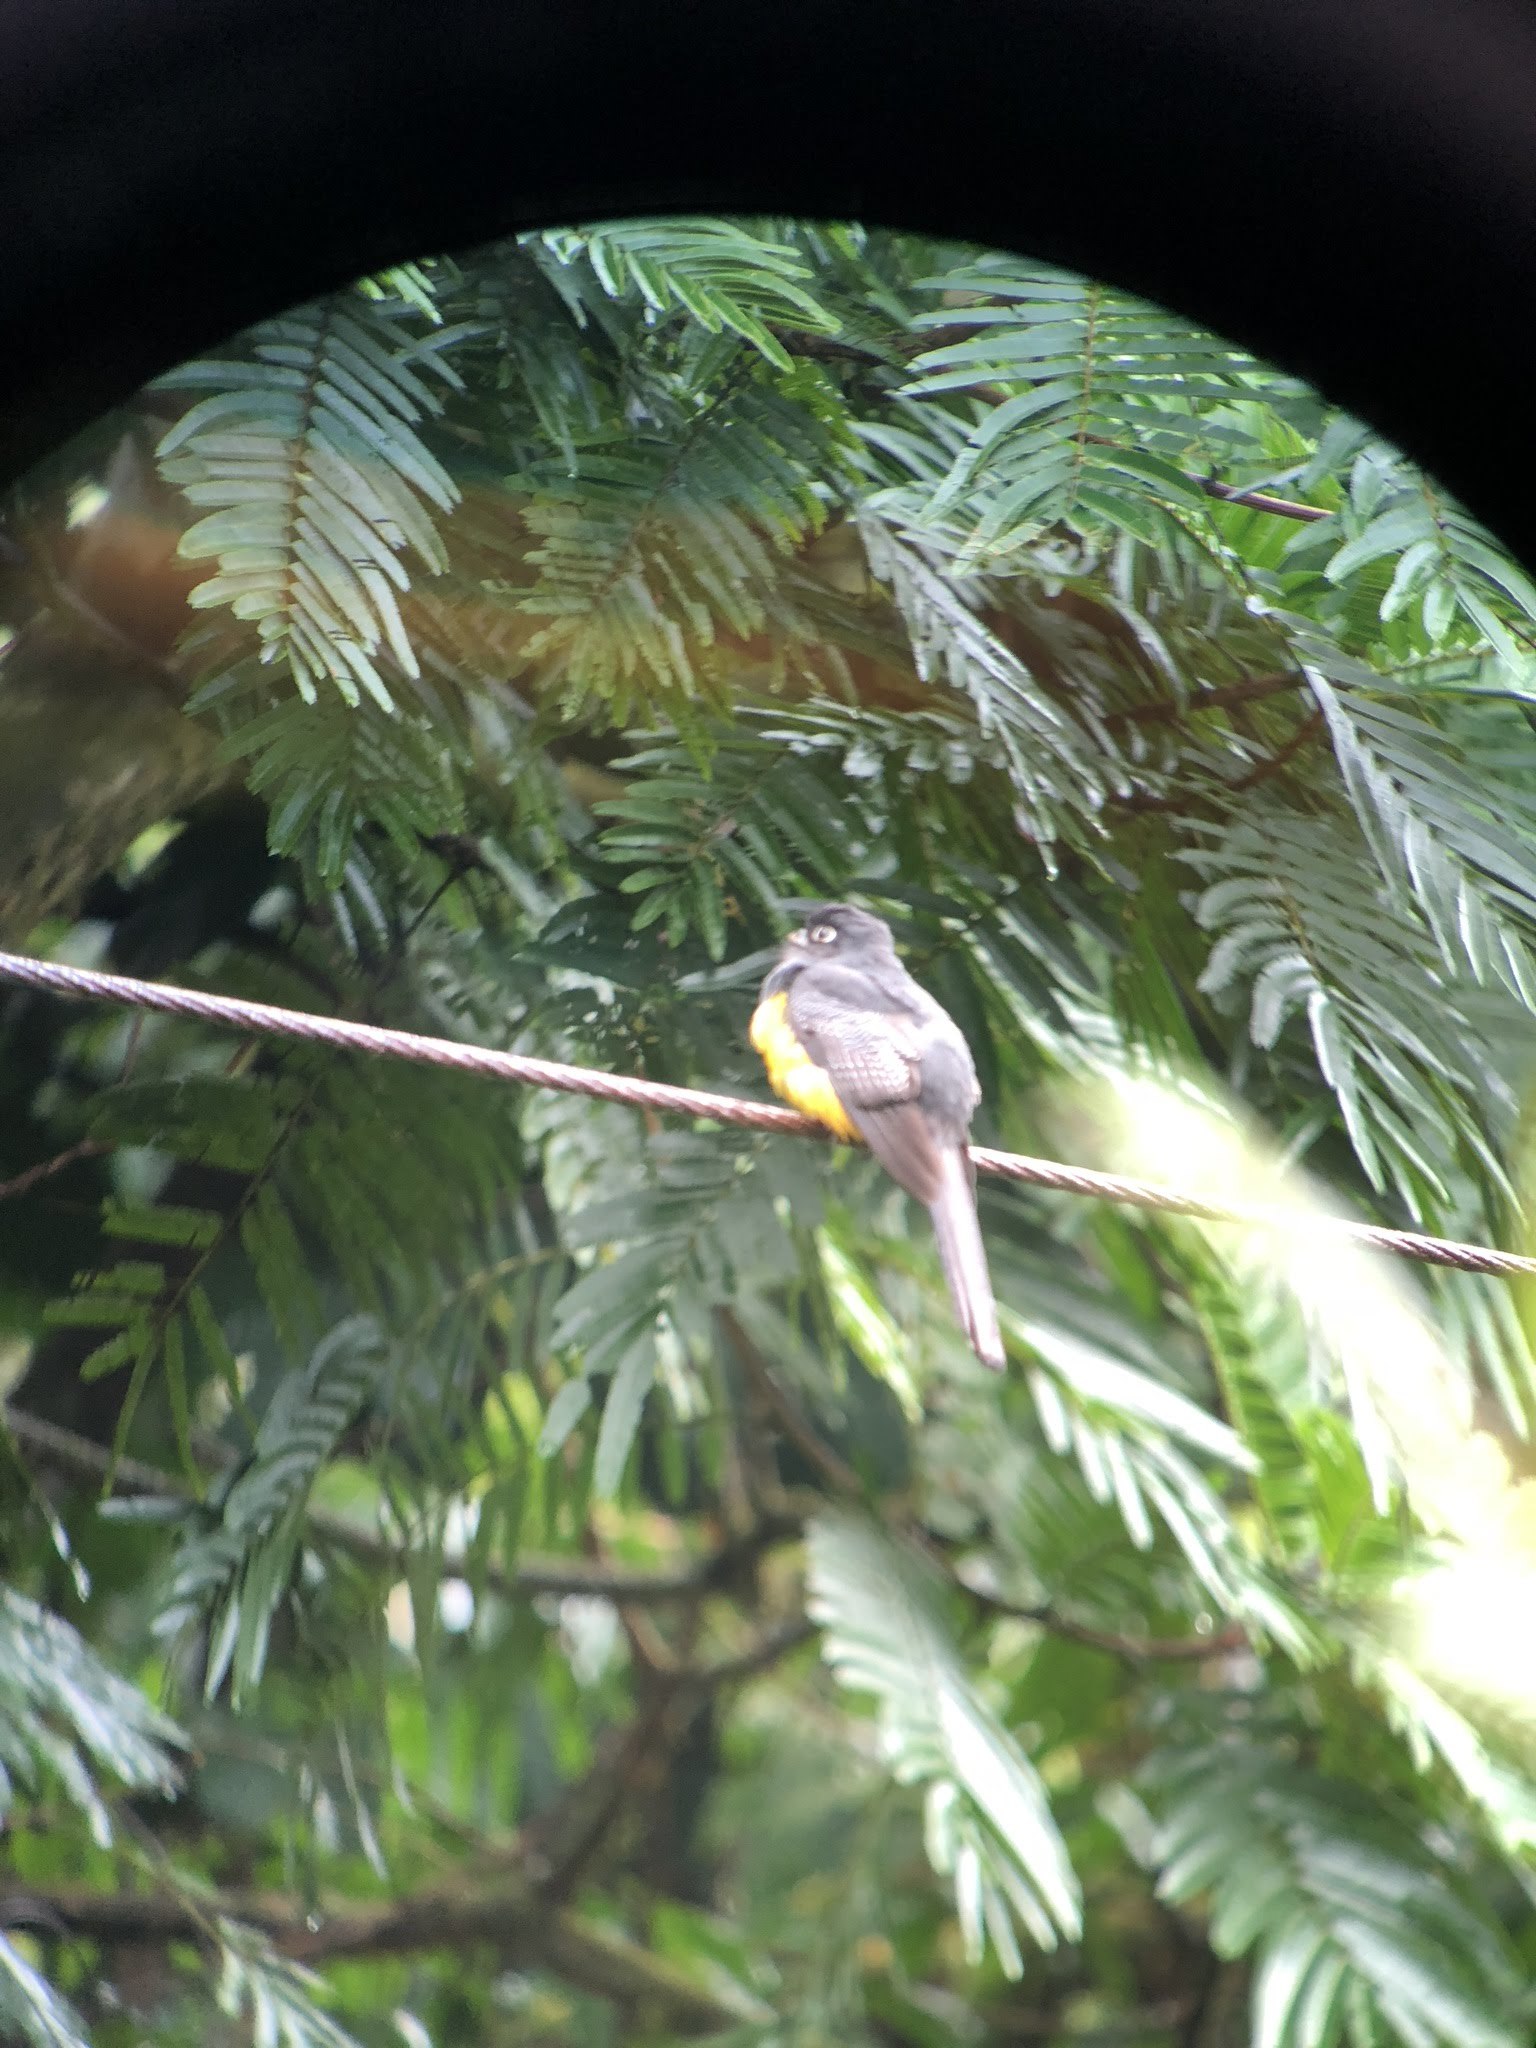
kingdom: Animalia
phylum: Chordata
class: Aves
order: Trogoniformes
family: Trogonidae
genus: Trogon
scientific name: Trogon rufus
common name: Black-throated trogon
